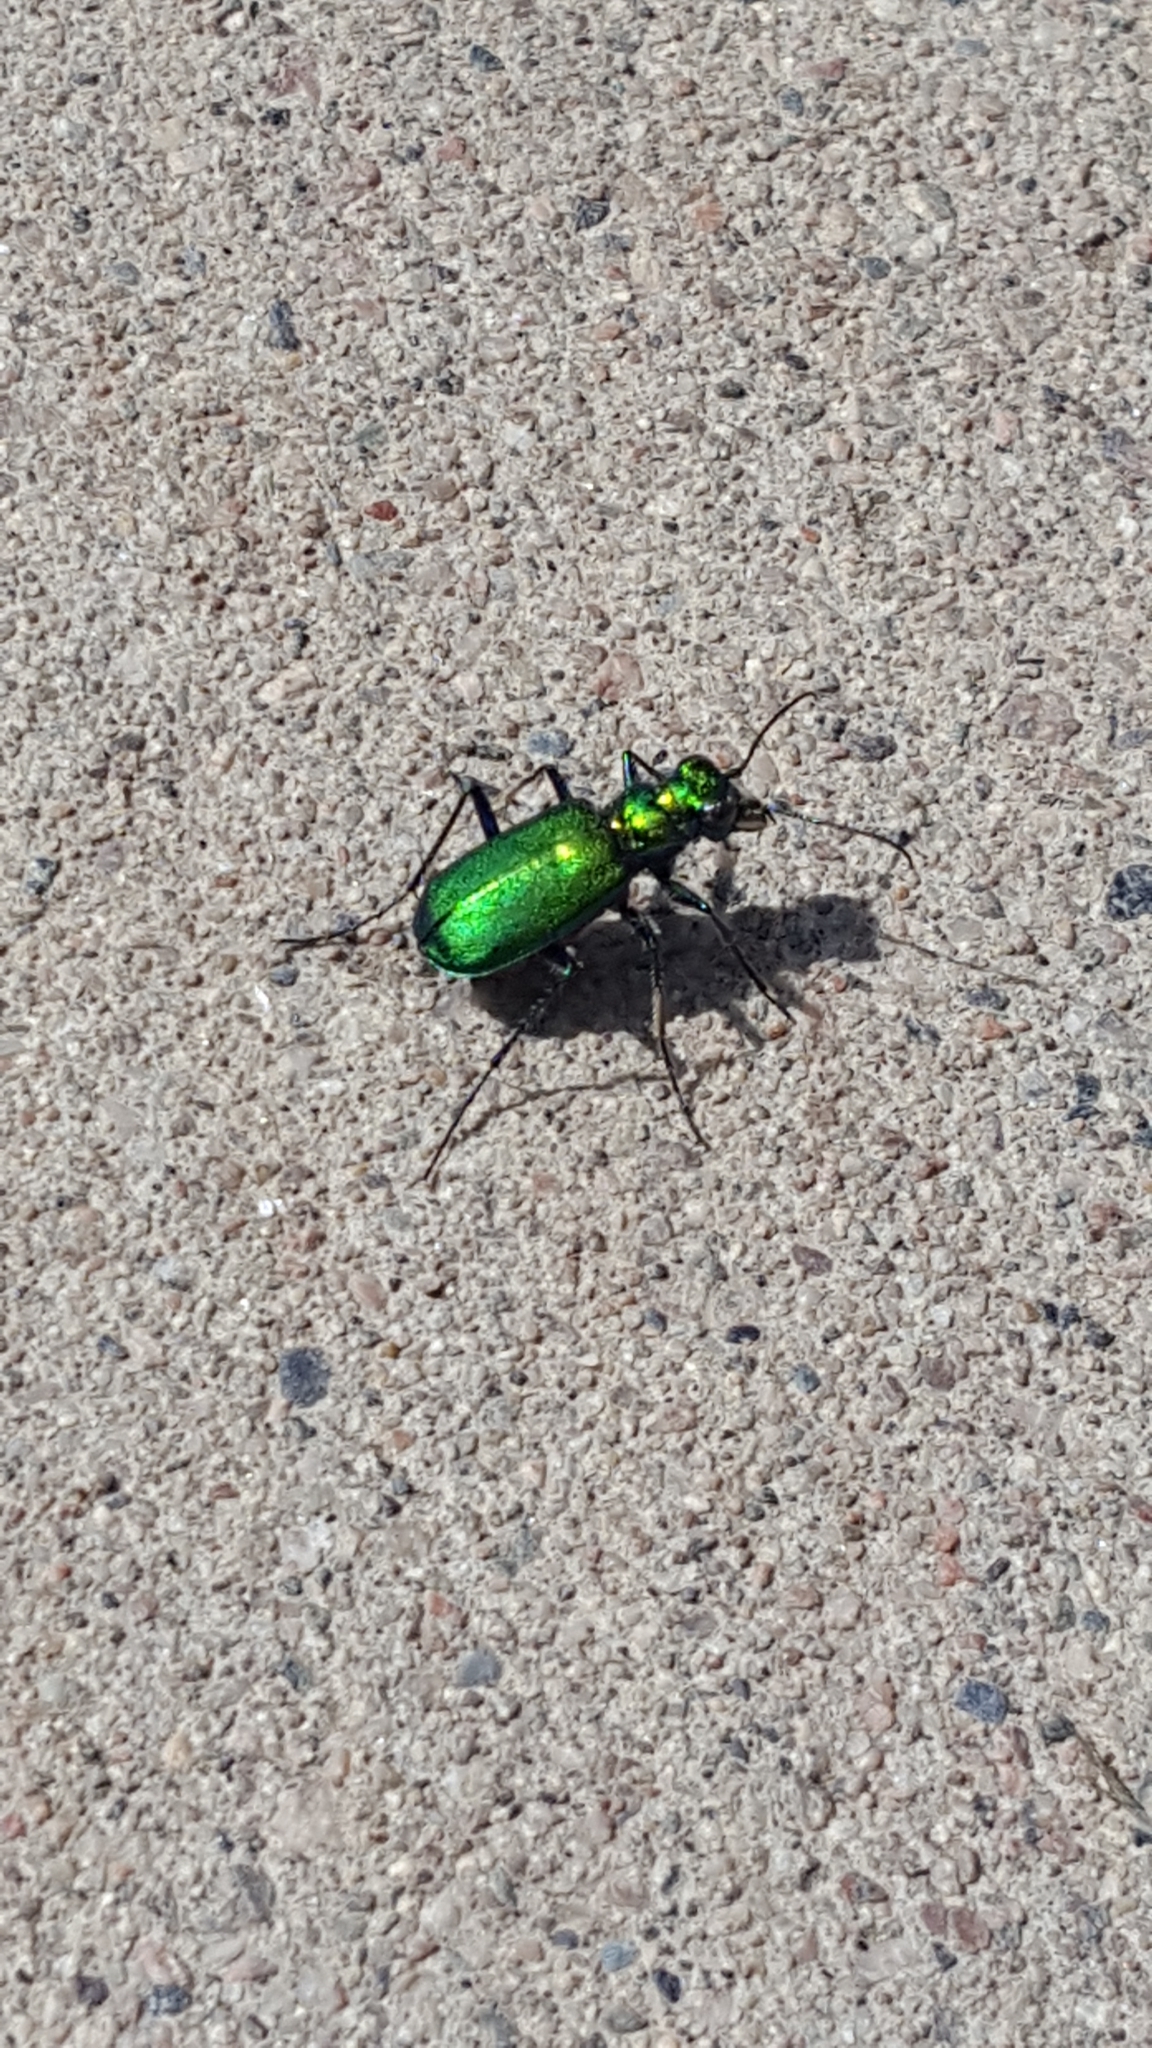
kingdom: Animalia
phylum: Arthropoda
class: Insecta
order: Coleoptera
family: Carabidae
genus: Cicindela
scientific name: Cicindela denikei
